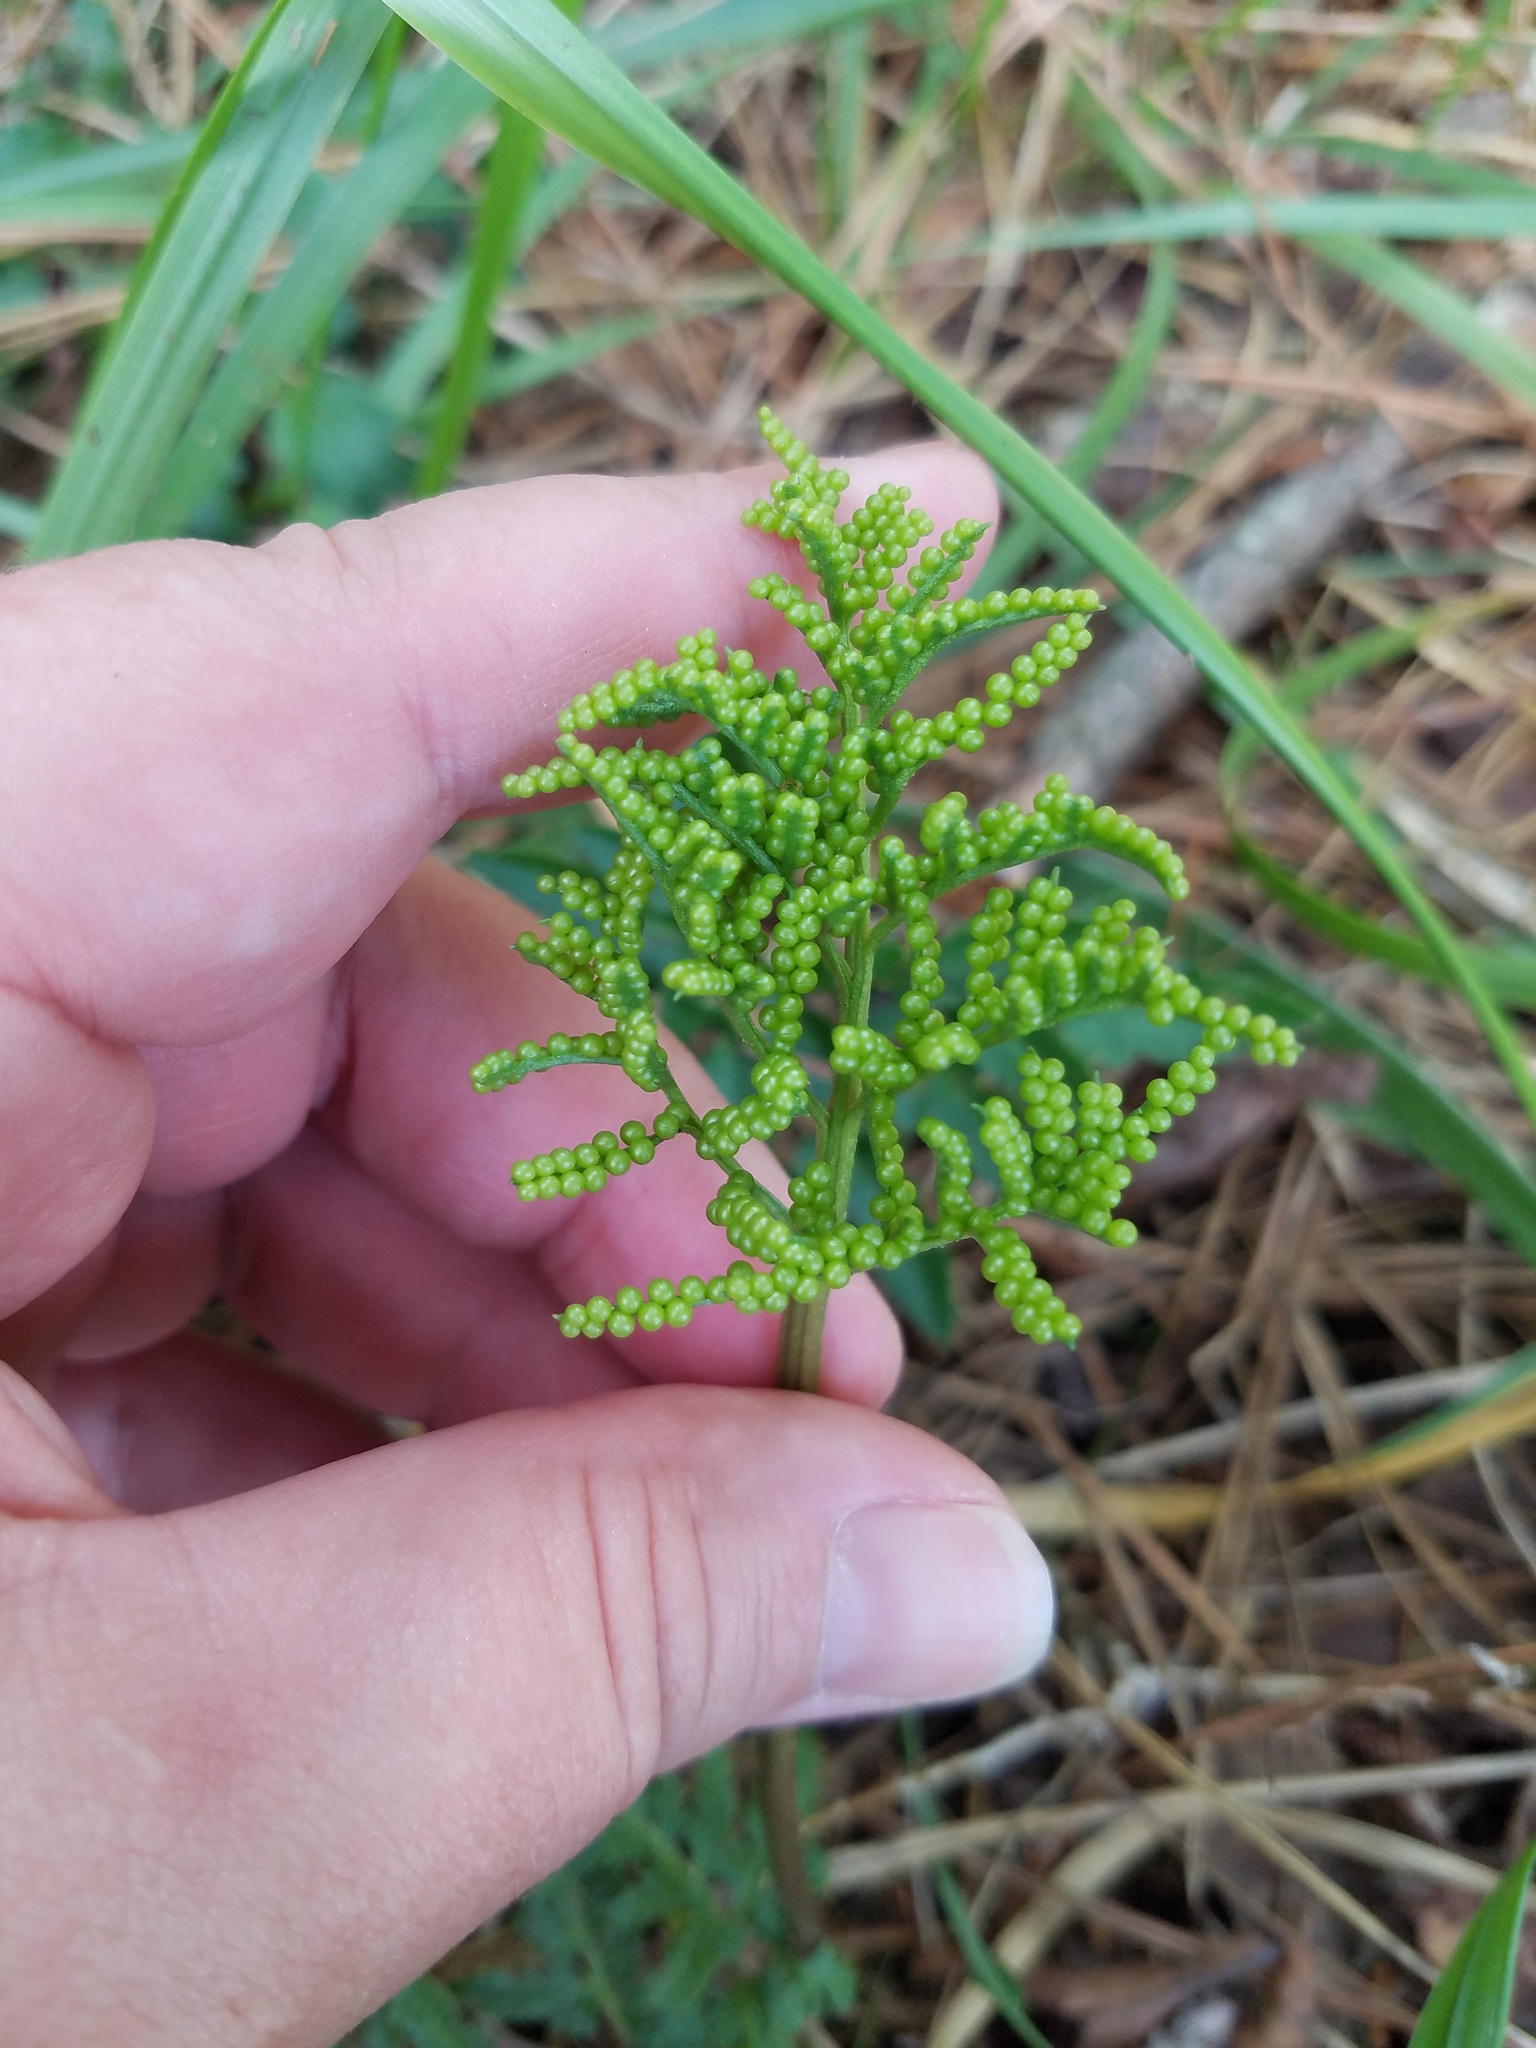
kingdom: Plantae
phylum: Tracheophyta
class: Polypodiopsida
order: Ophioglossales
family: Ophioglossaceae
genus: Sceptridium
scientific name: Sceptridium dissectum
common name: Cut-leaved grapefern
